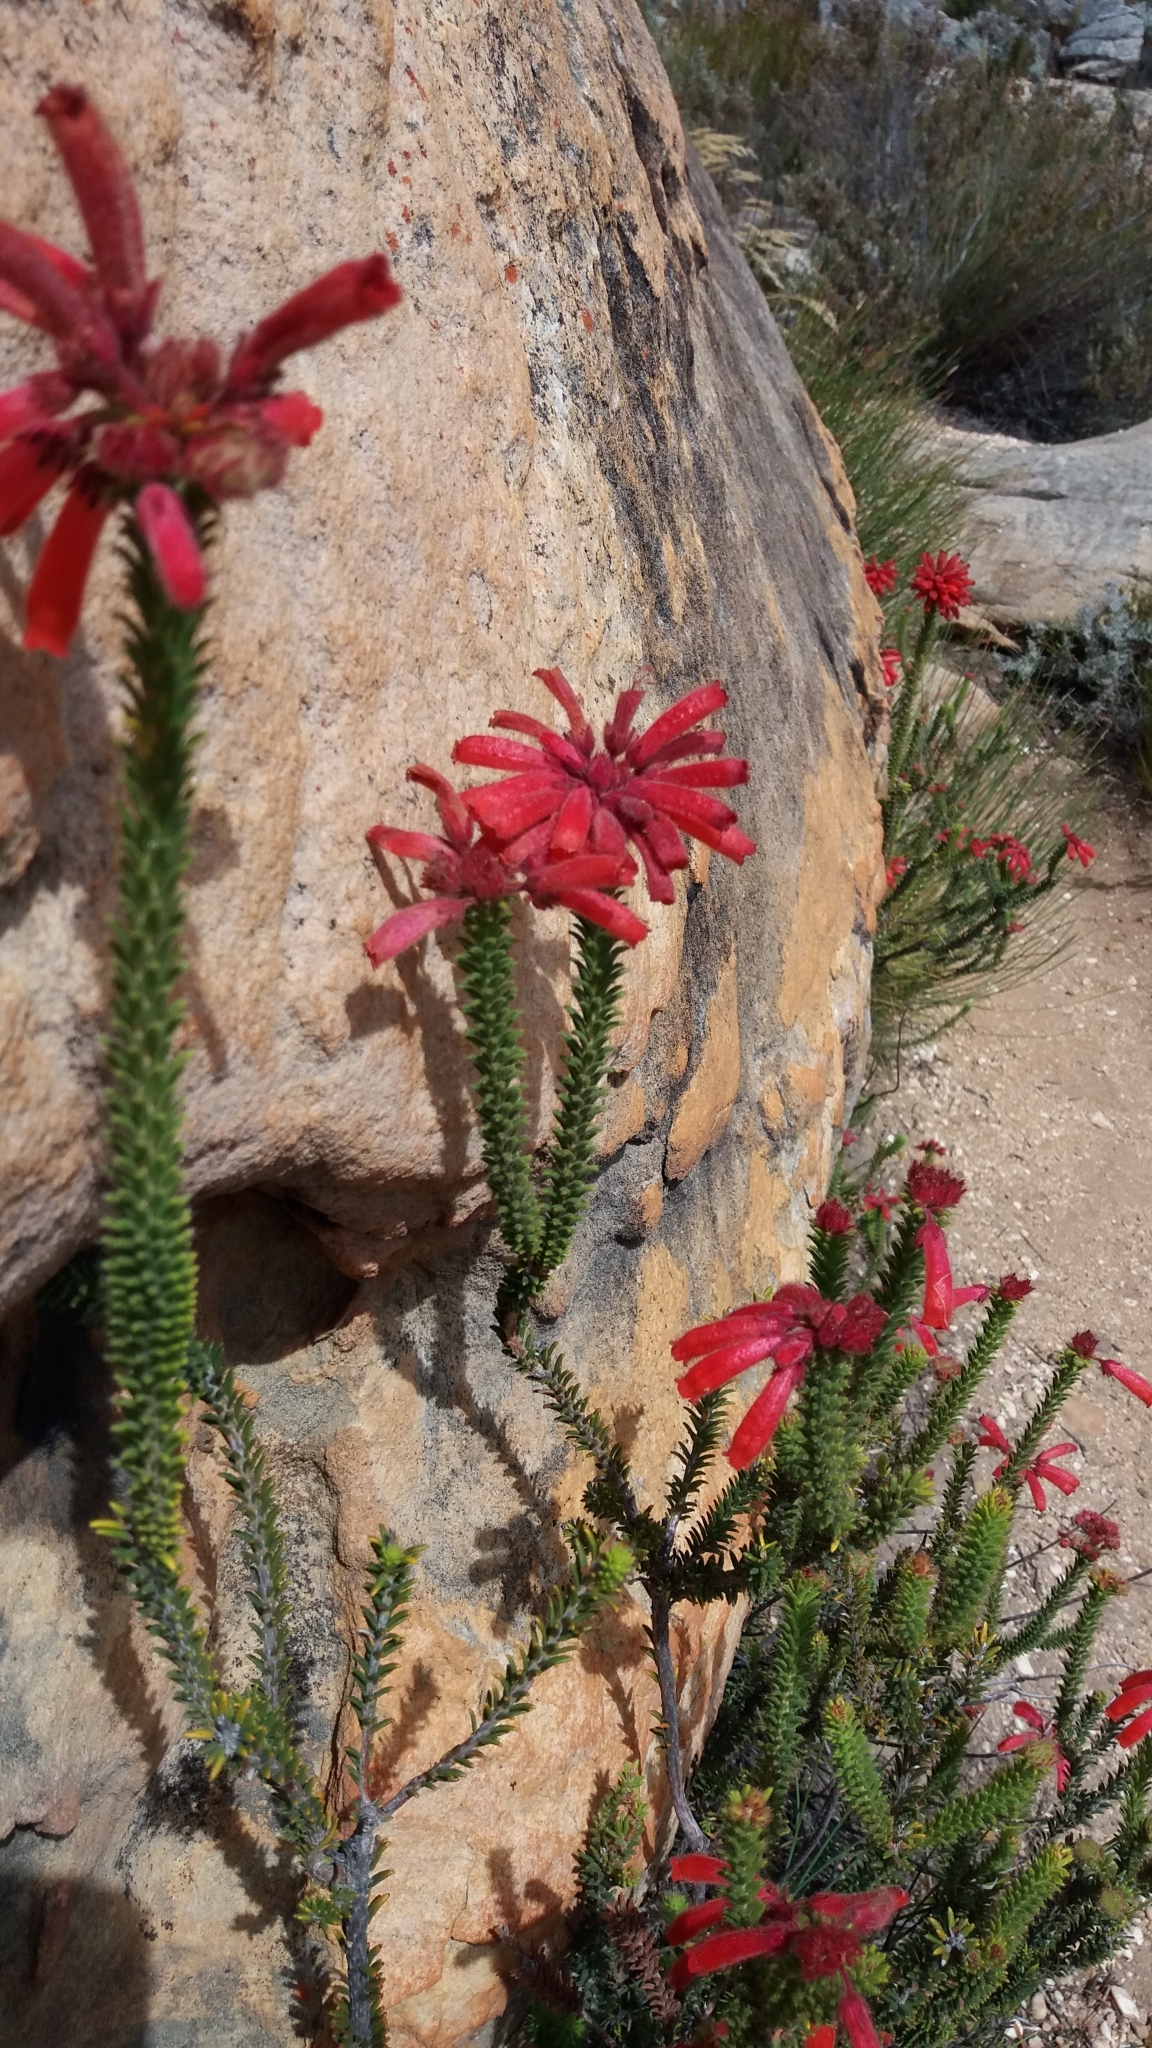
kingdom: Plantae
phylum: Tracheophyta
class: Magnoliopsida
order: Ericales
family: Ericaceae
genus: Erica
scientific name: Erica cerinthoides
